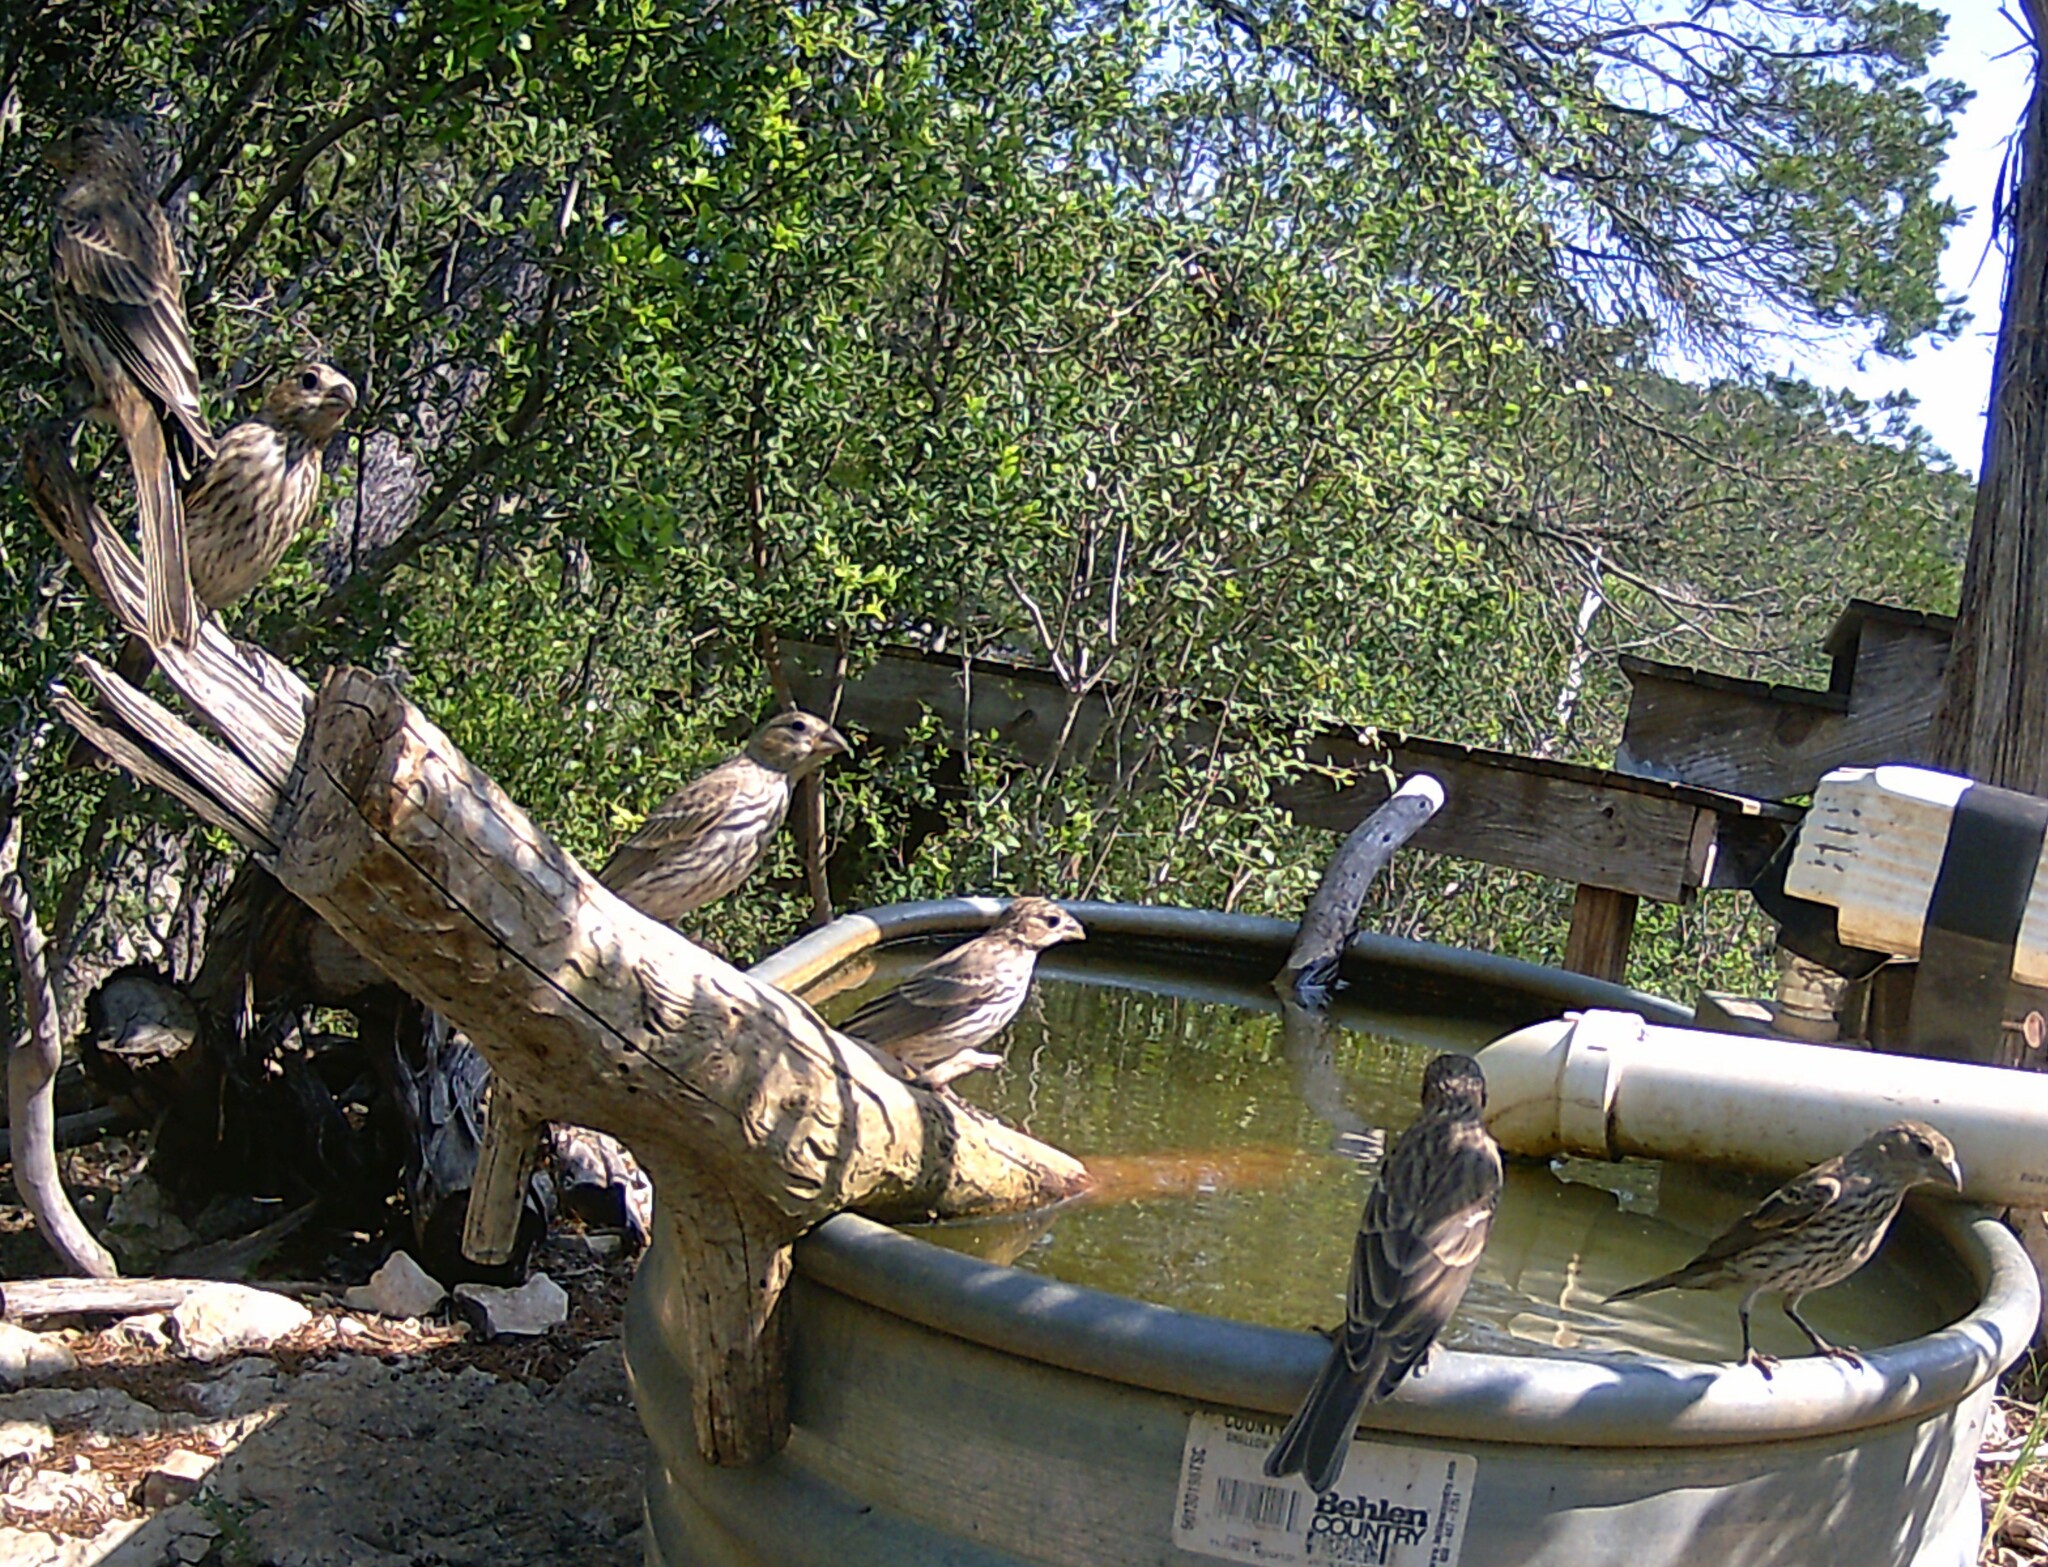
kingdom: Animalia
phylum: Chordata
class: Aves
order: Passeriformes
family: Fringillidae
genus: Haemorhous
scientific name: Haemorhous mexicanus
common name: House finch
